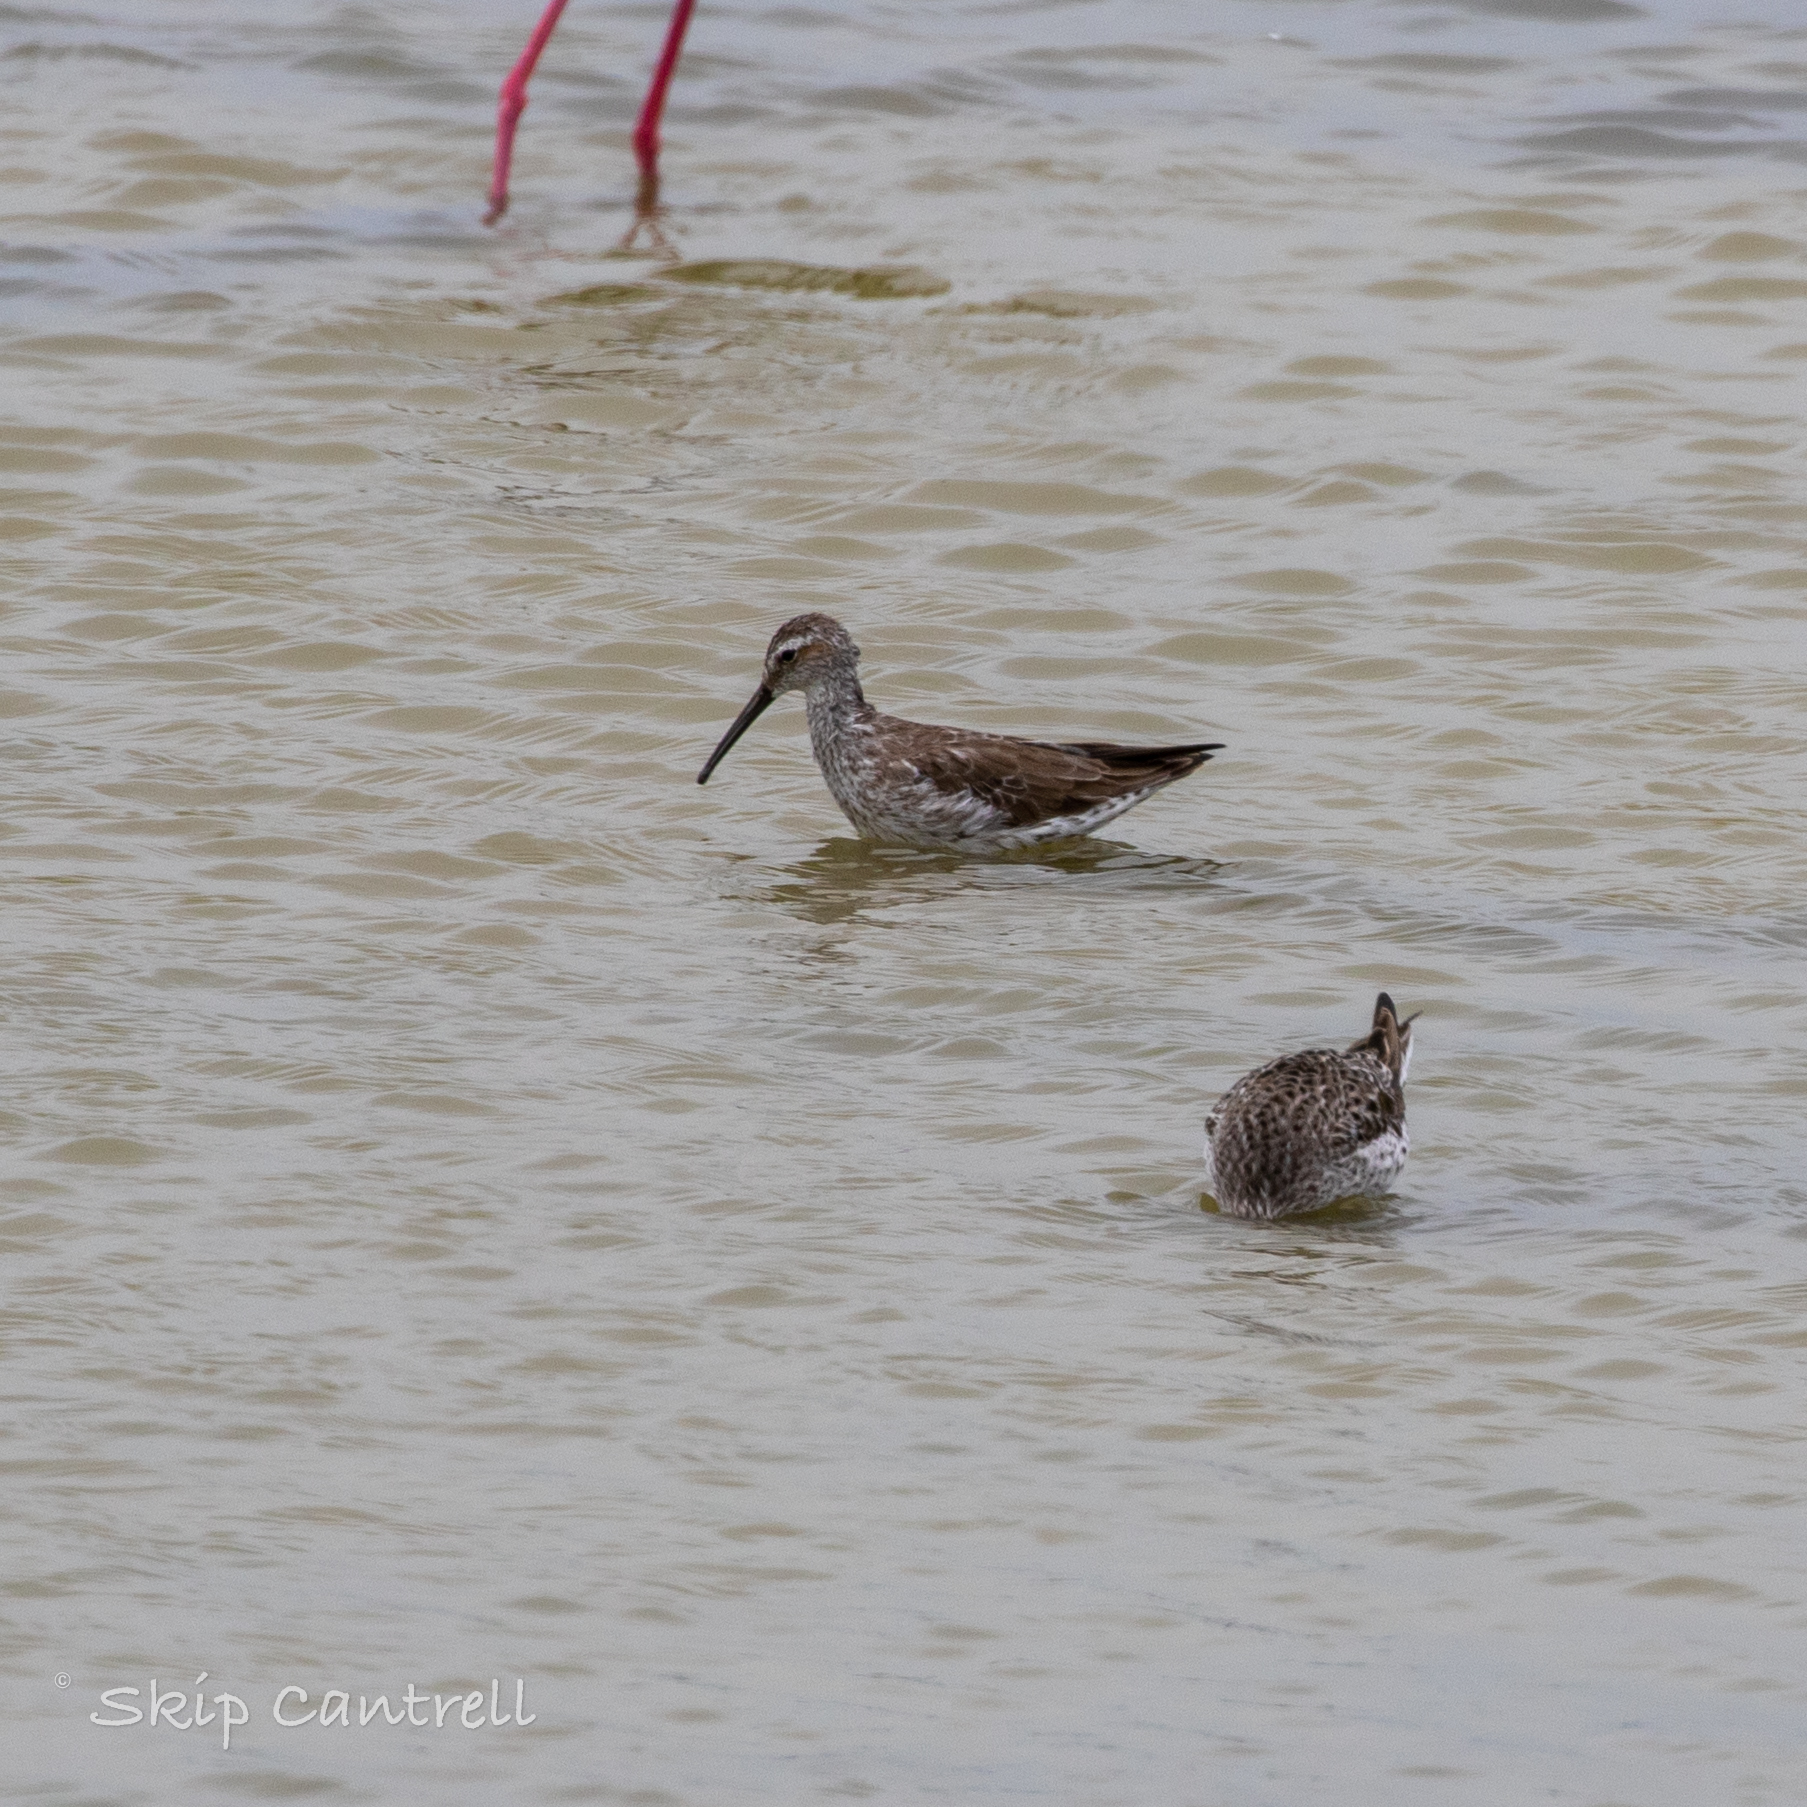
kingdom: Animalia
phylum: Chordata
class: Aves
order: Charadriiformes
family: Scolopacidae
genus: Calidris
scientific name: Calidris himantopus
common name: Stilt sandpiper
